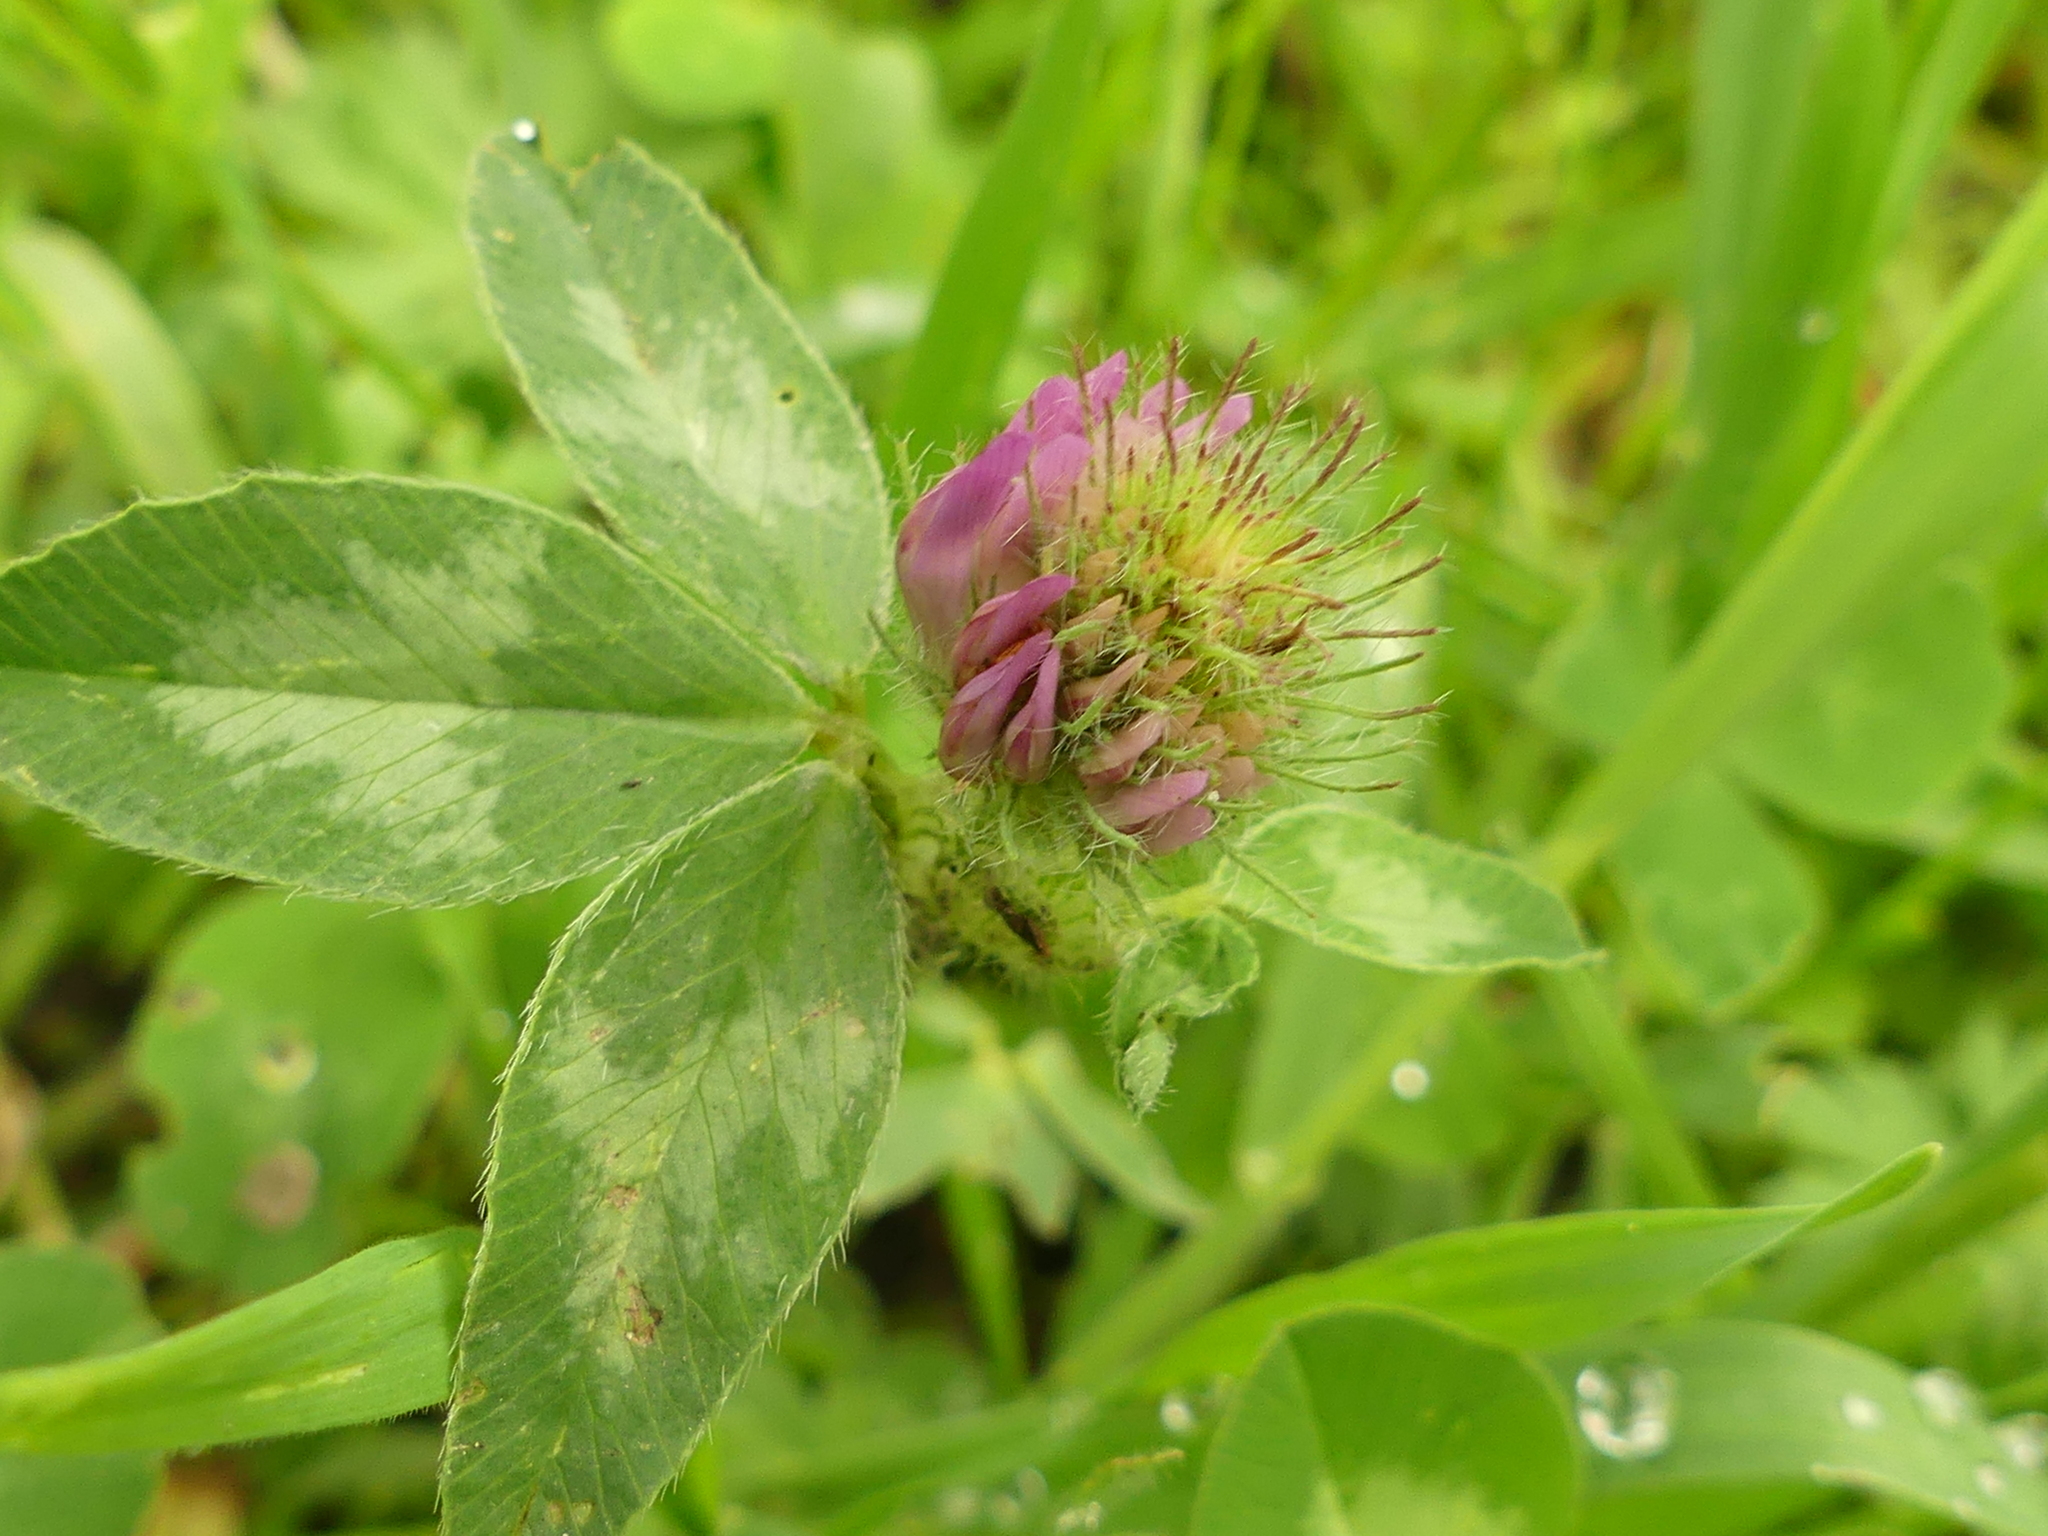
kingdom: Plantae
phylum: Tracheophyta
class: Magnoliopsida
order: Fabales
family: Fabaceae
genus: Trifolium
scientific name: Trifolium pratense
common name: Red clover
